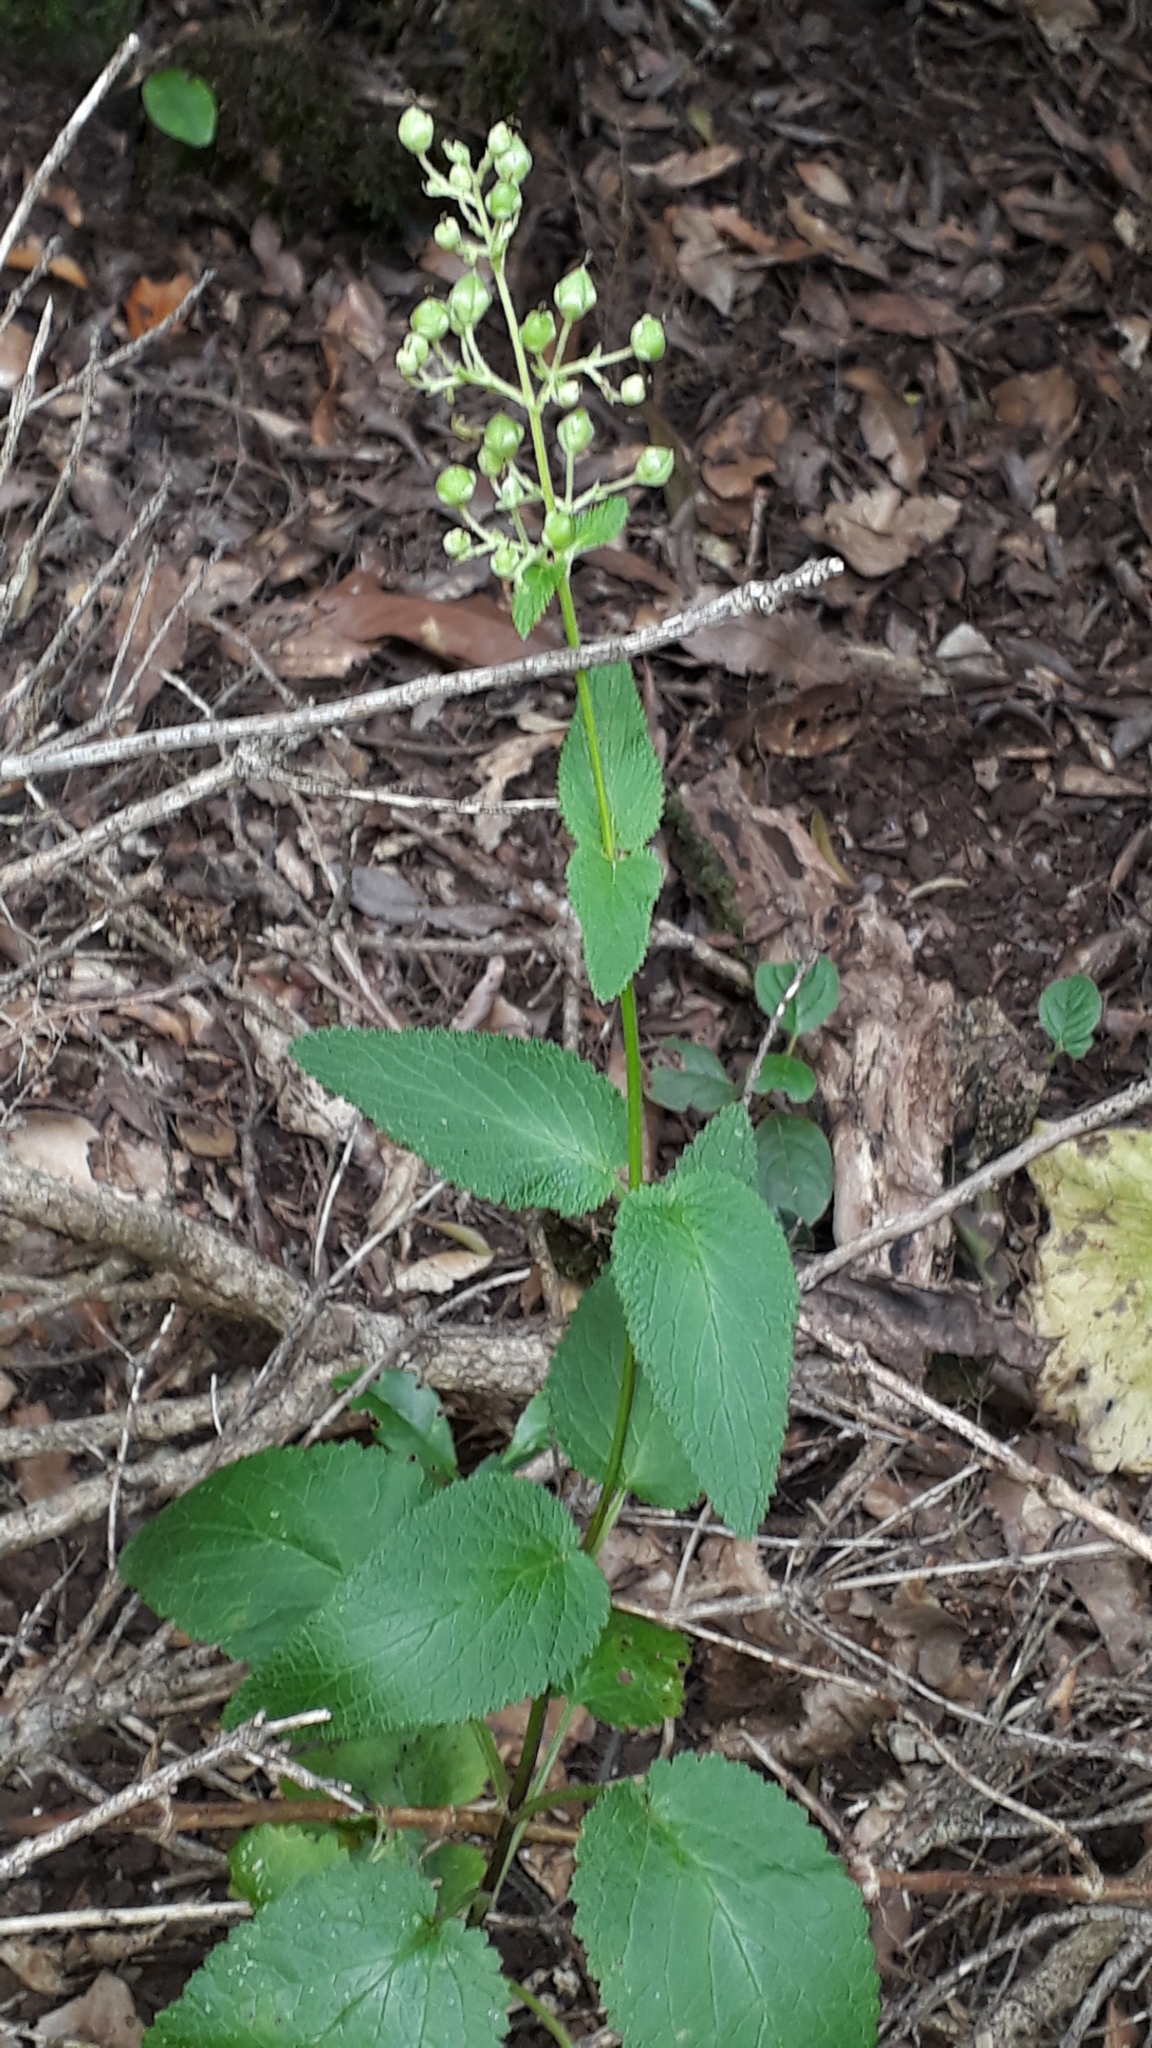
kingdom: Plantae
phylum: Tracheophyta
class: Magnoliopsida
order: Lamiales
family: Scrophulariaceae
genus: Scrophularia
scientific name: Scrophularia smithii
